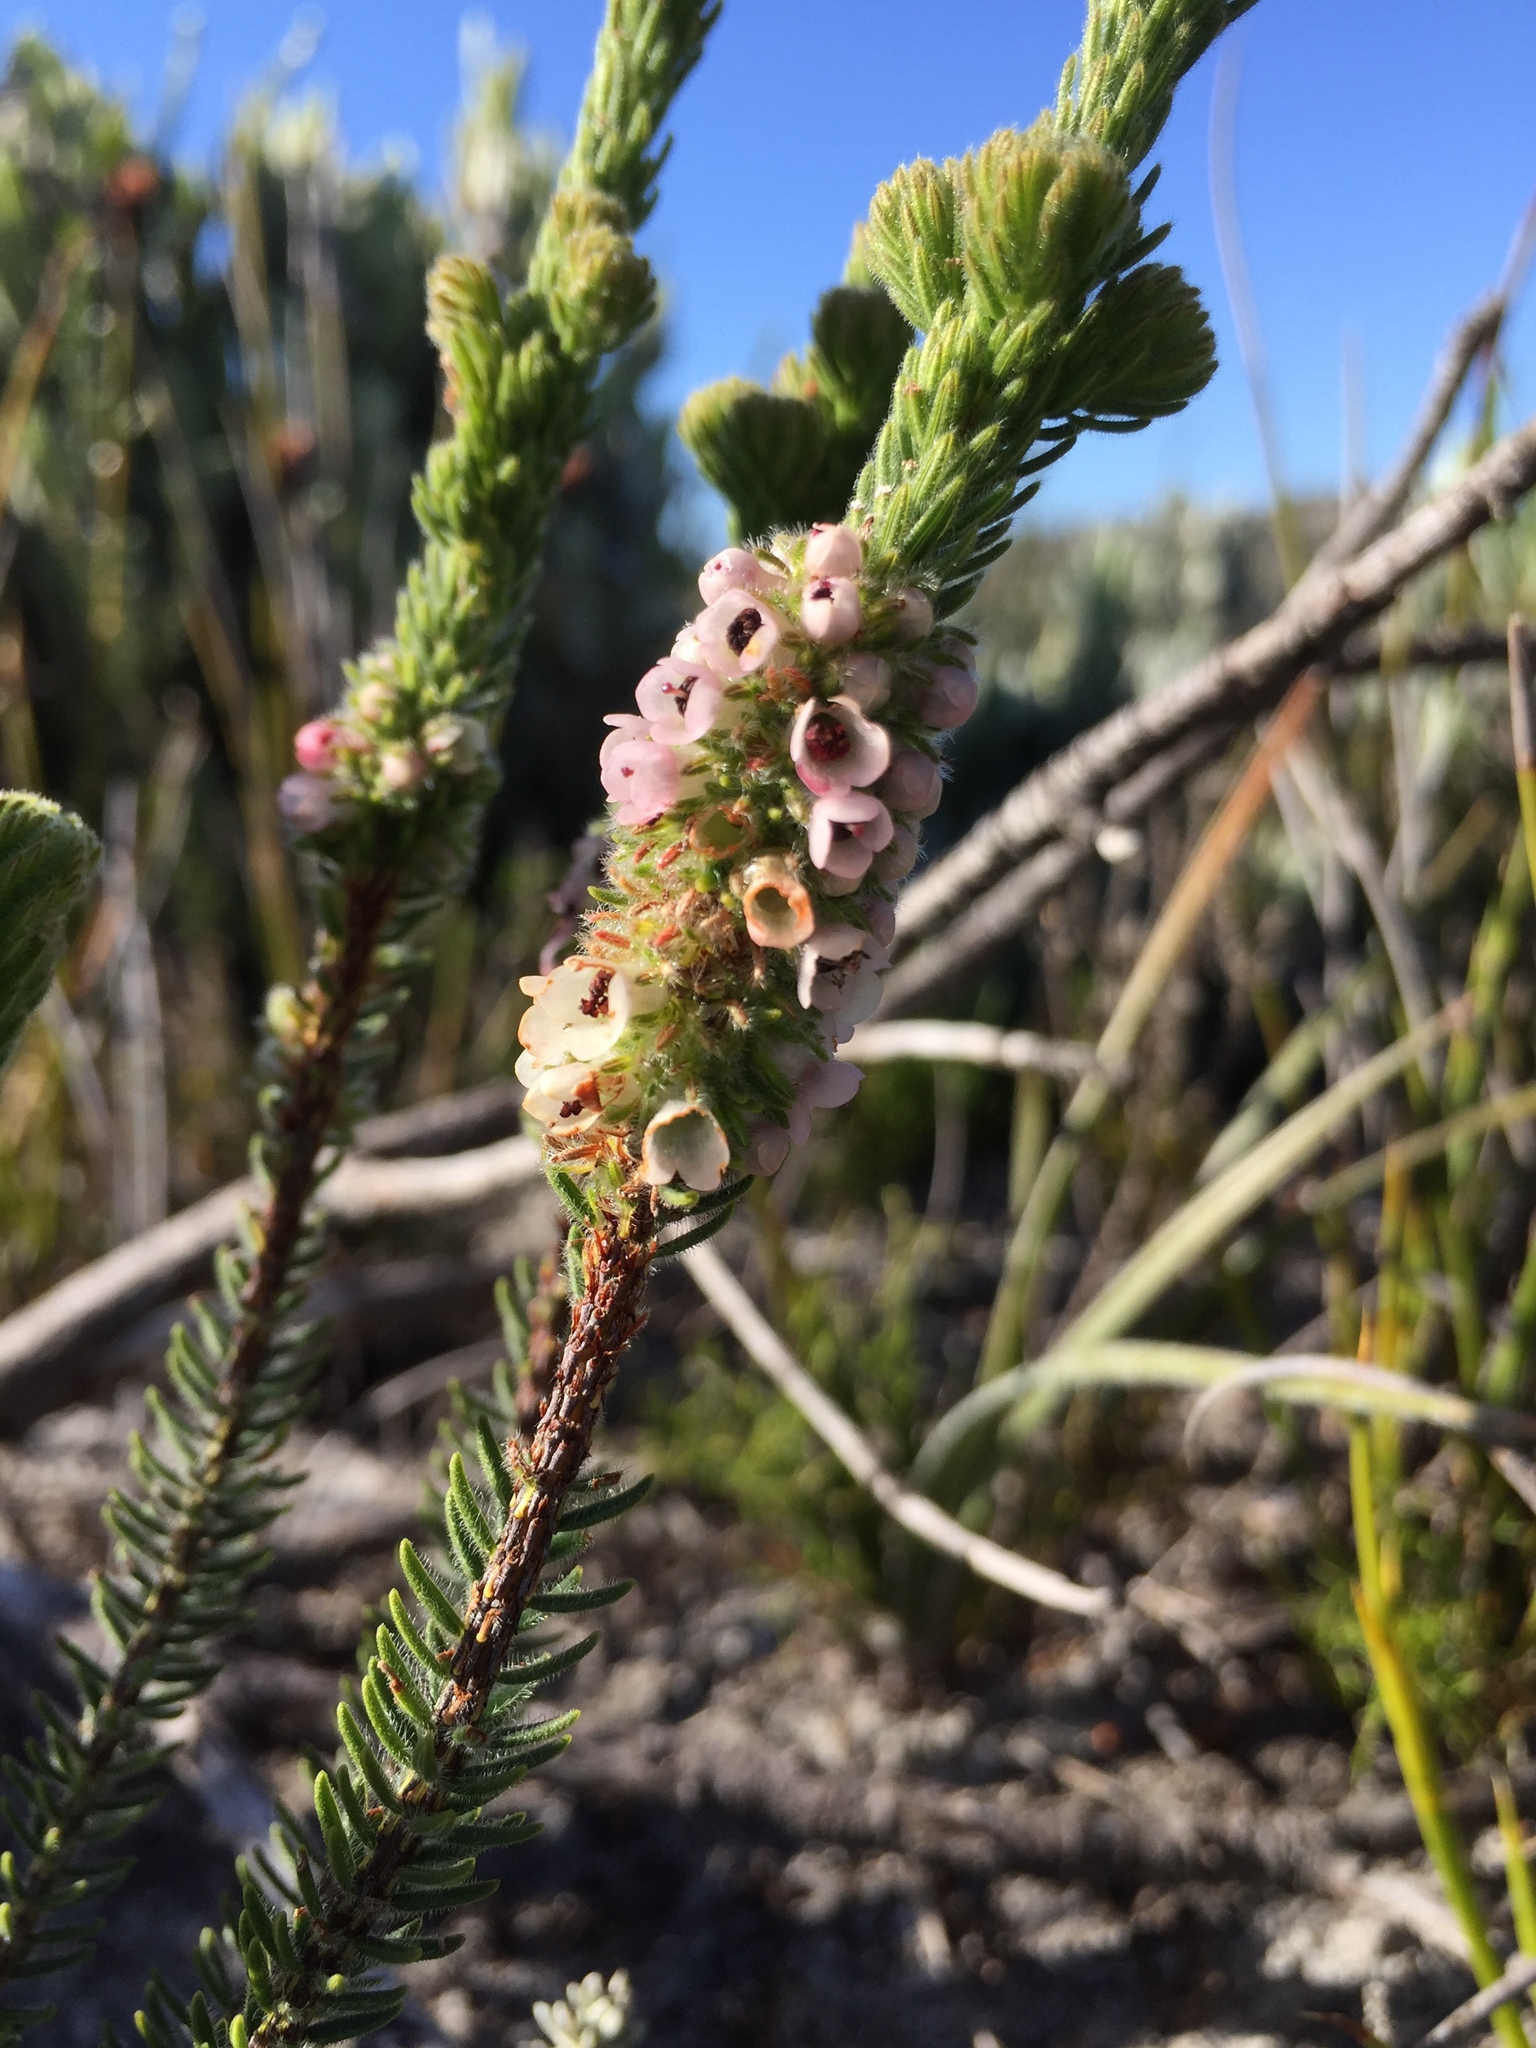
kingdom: Plantae
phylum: Tracheophyta
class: Magnoliopsida
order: Ericales
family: Ericaceae
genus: Erica
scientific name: Erica pyxidiflora
